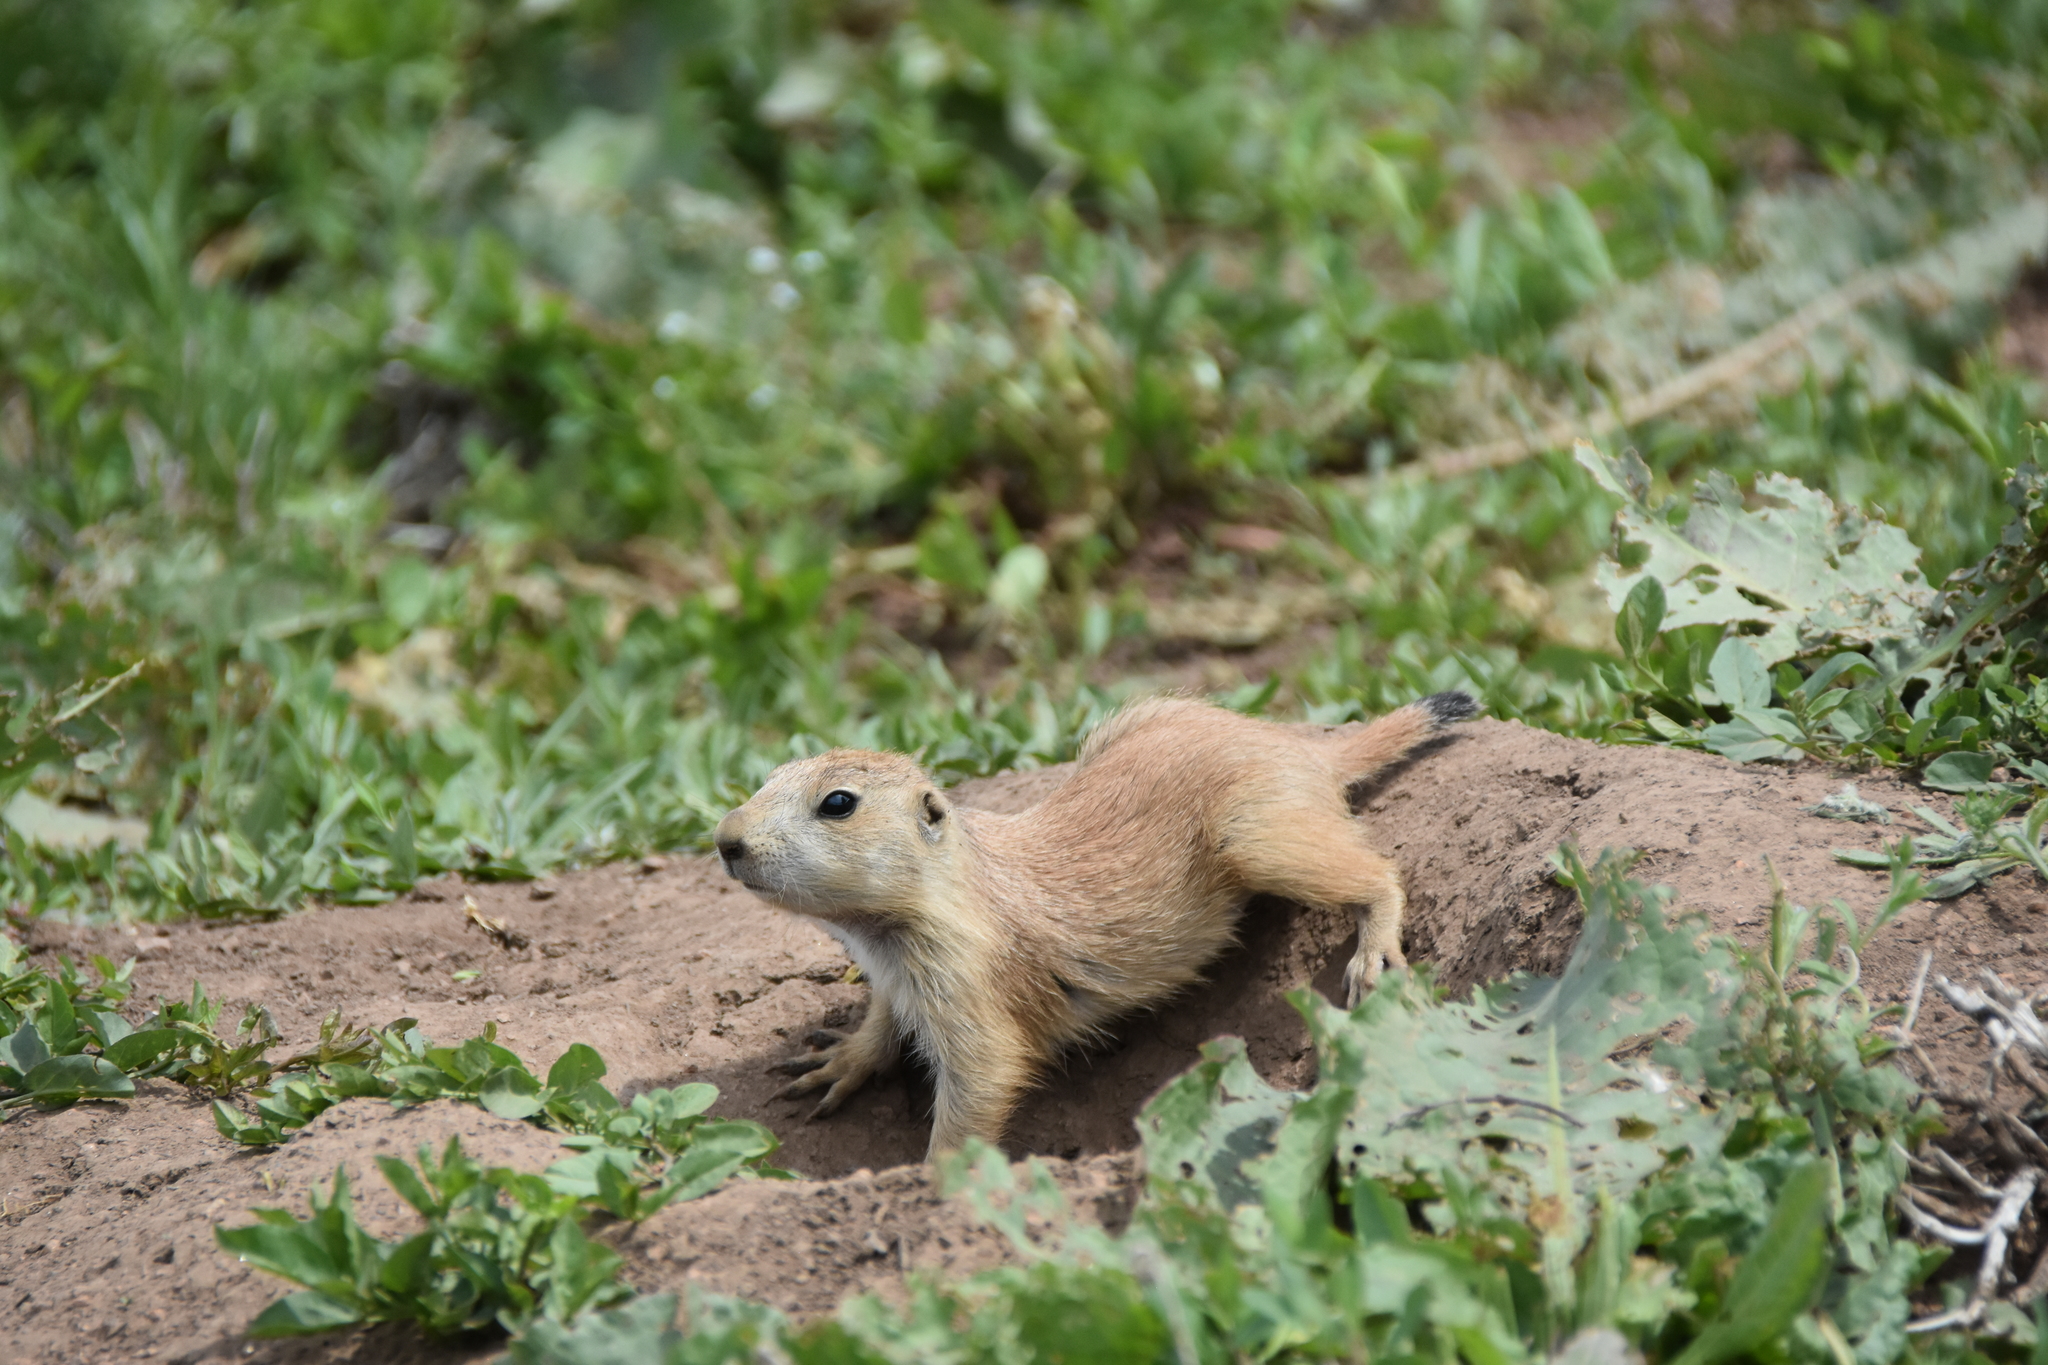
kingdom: Animalia
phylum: Chordata
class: Mammalia
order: Rodentia
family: Sciuridae
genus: Cynomys
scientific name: Cynomys ludovicianus
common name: Black-tailed prairie dog
